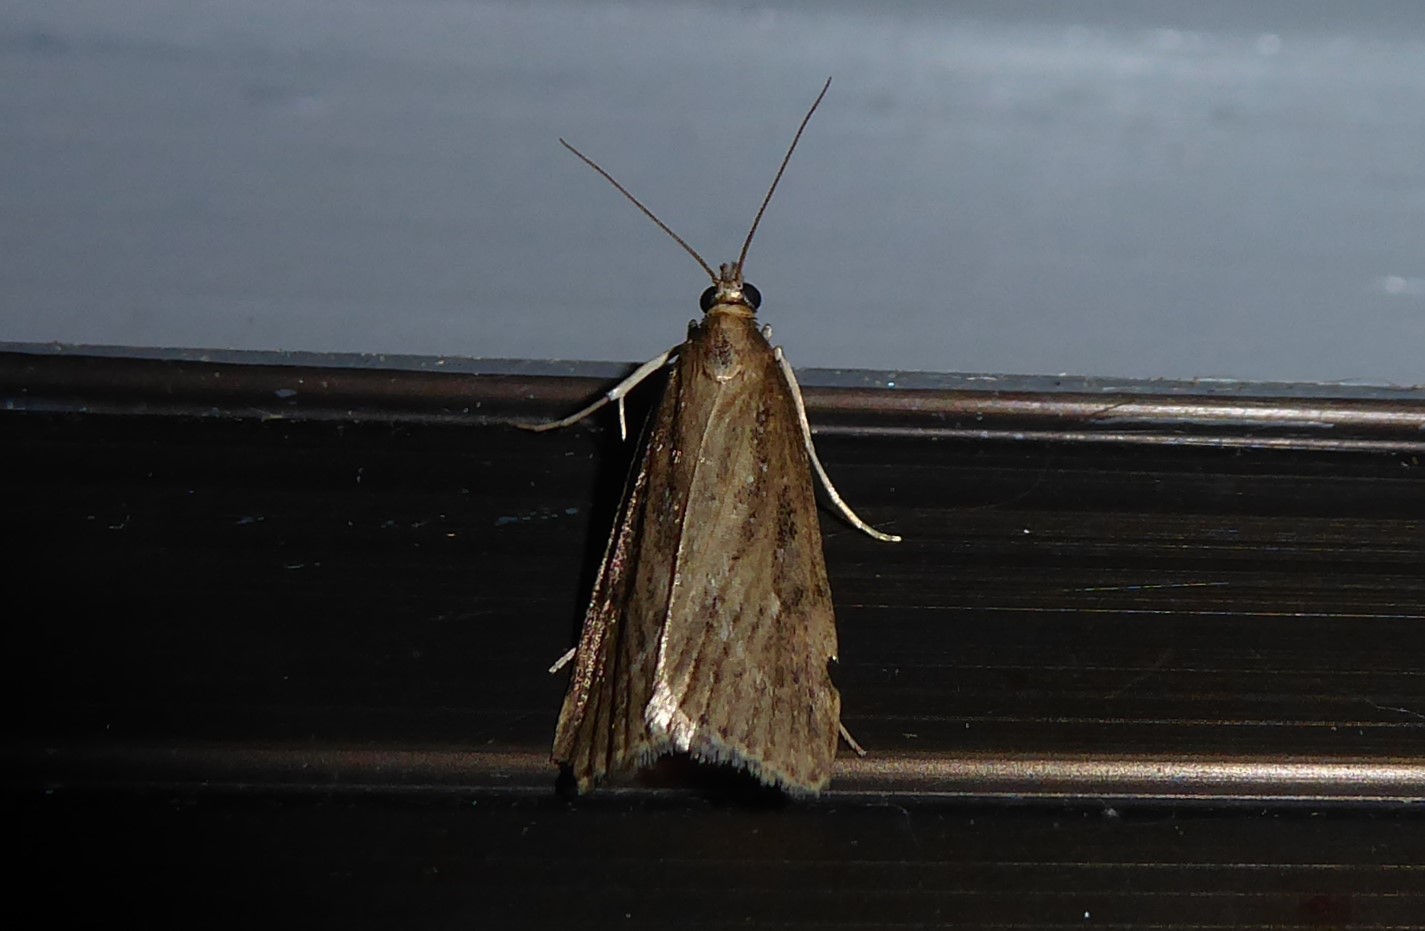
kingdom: Animalia
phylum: Arthropoda
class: Insecta
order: Lepidoptera
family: Crambidae
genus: Eudonia
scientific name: Eudonia octophora
